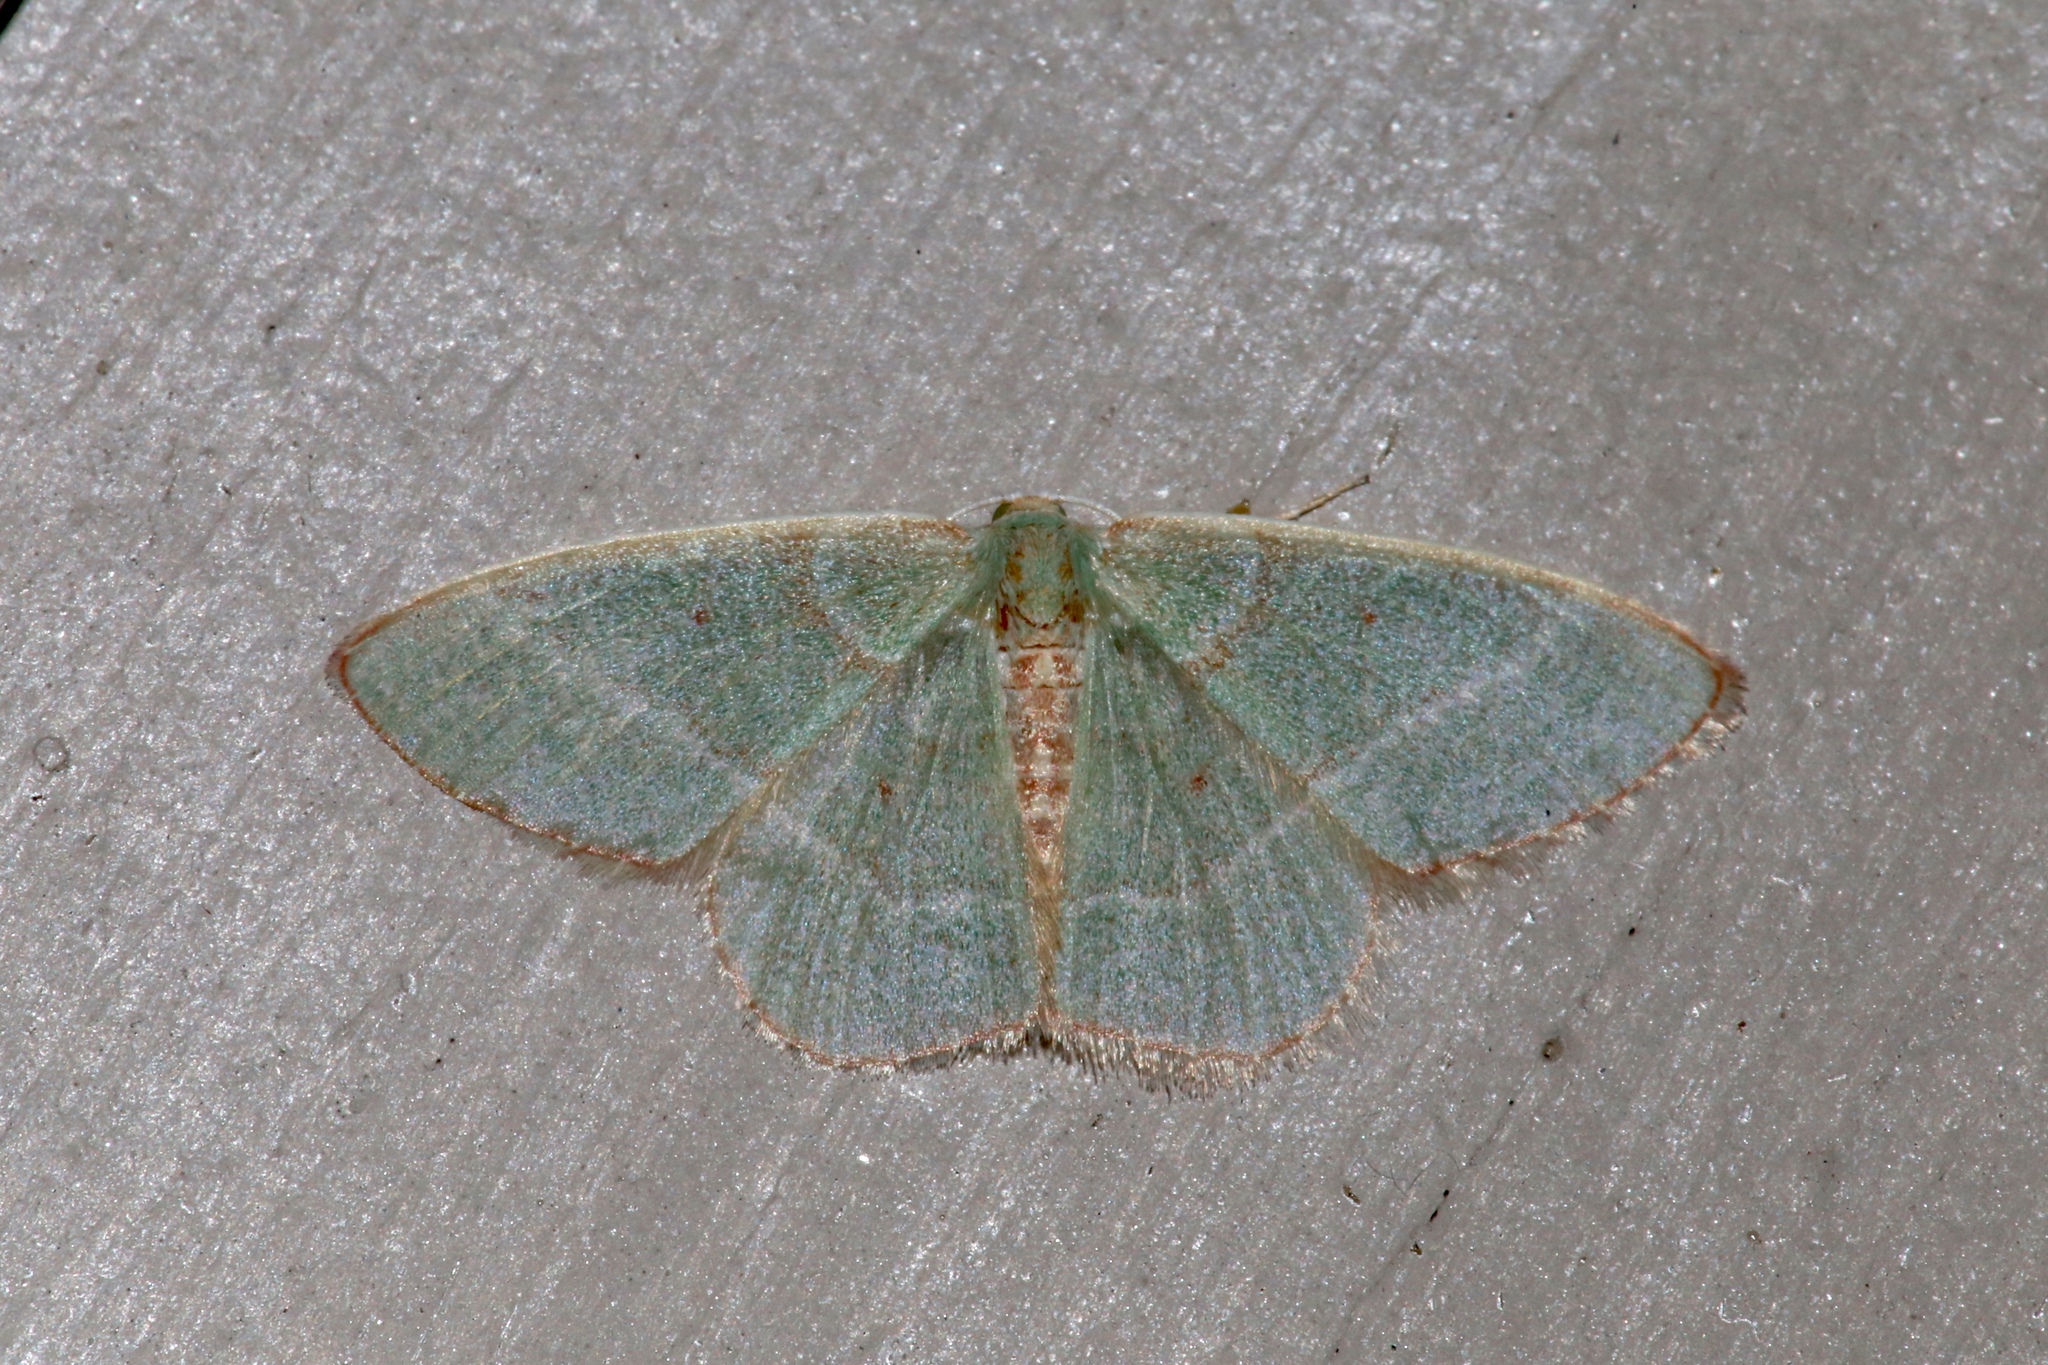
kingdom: Animalia
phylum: Arthropoda
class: Insecta
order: Lepidoptera
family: Geometridae
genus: Nemoria
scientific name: Nemoria bistriaria
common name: Red-fringed emerald
